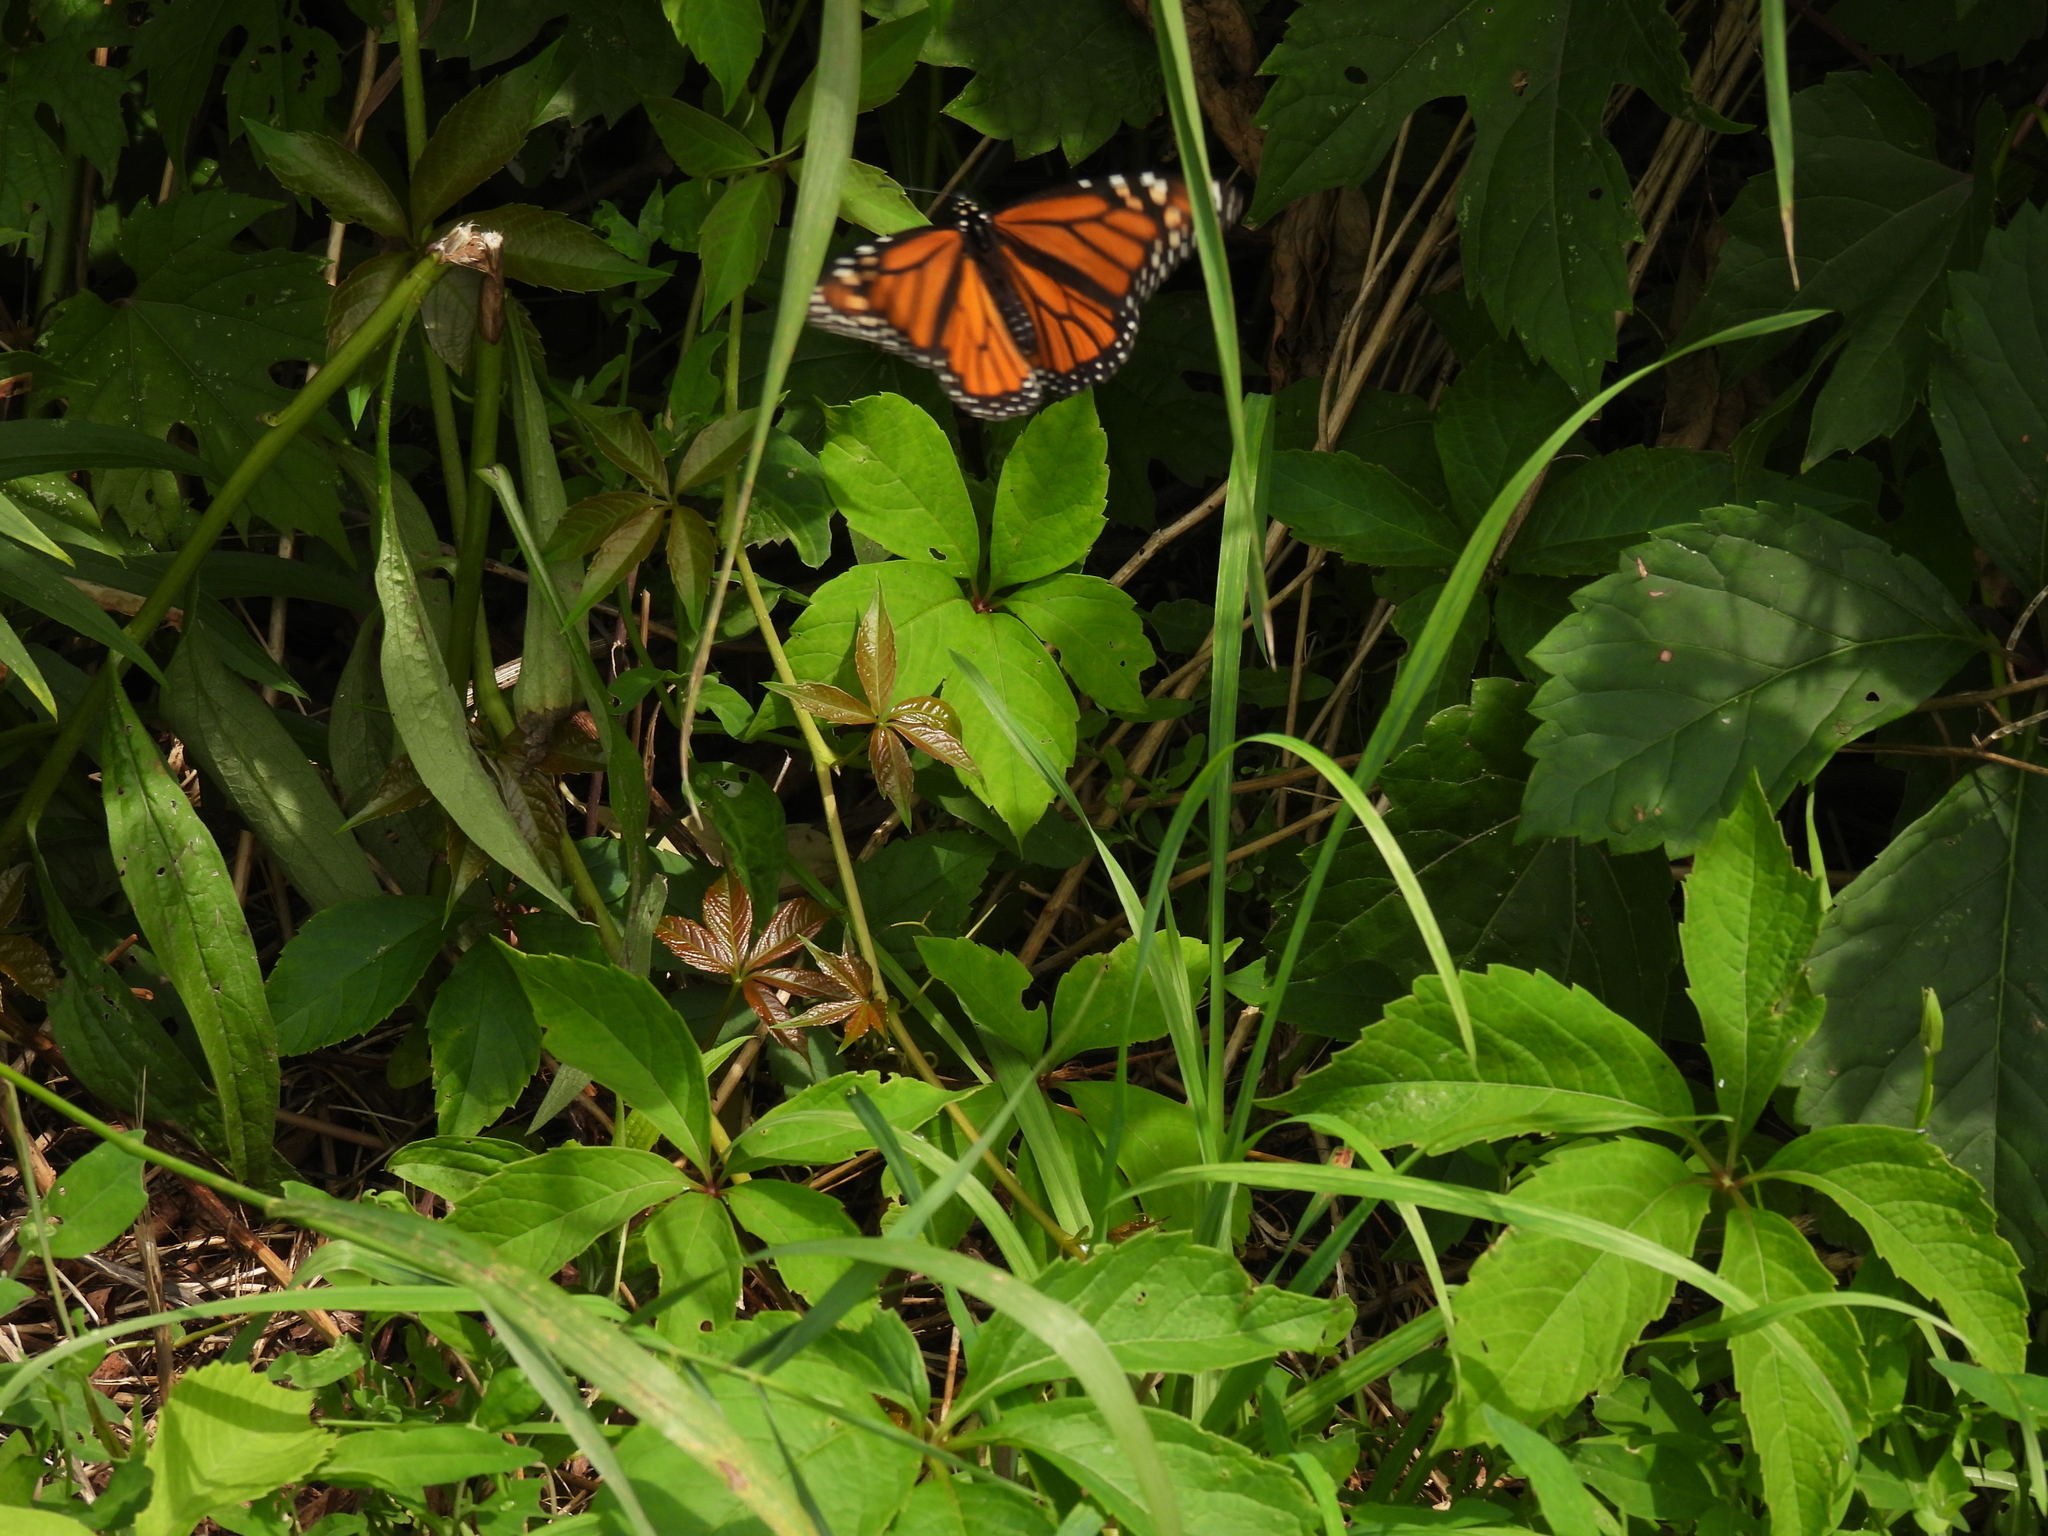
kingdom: Animalia
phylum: Arthropoda
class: Insecta
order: Lepidoptera
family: Nymphalidae
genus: Danaus
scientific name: Danaus plexippus
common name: Monarch
